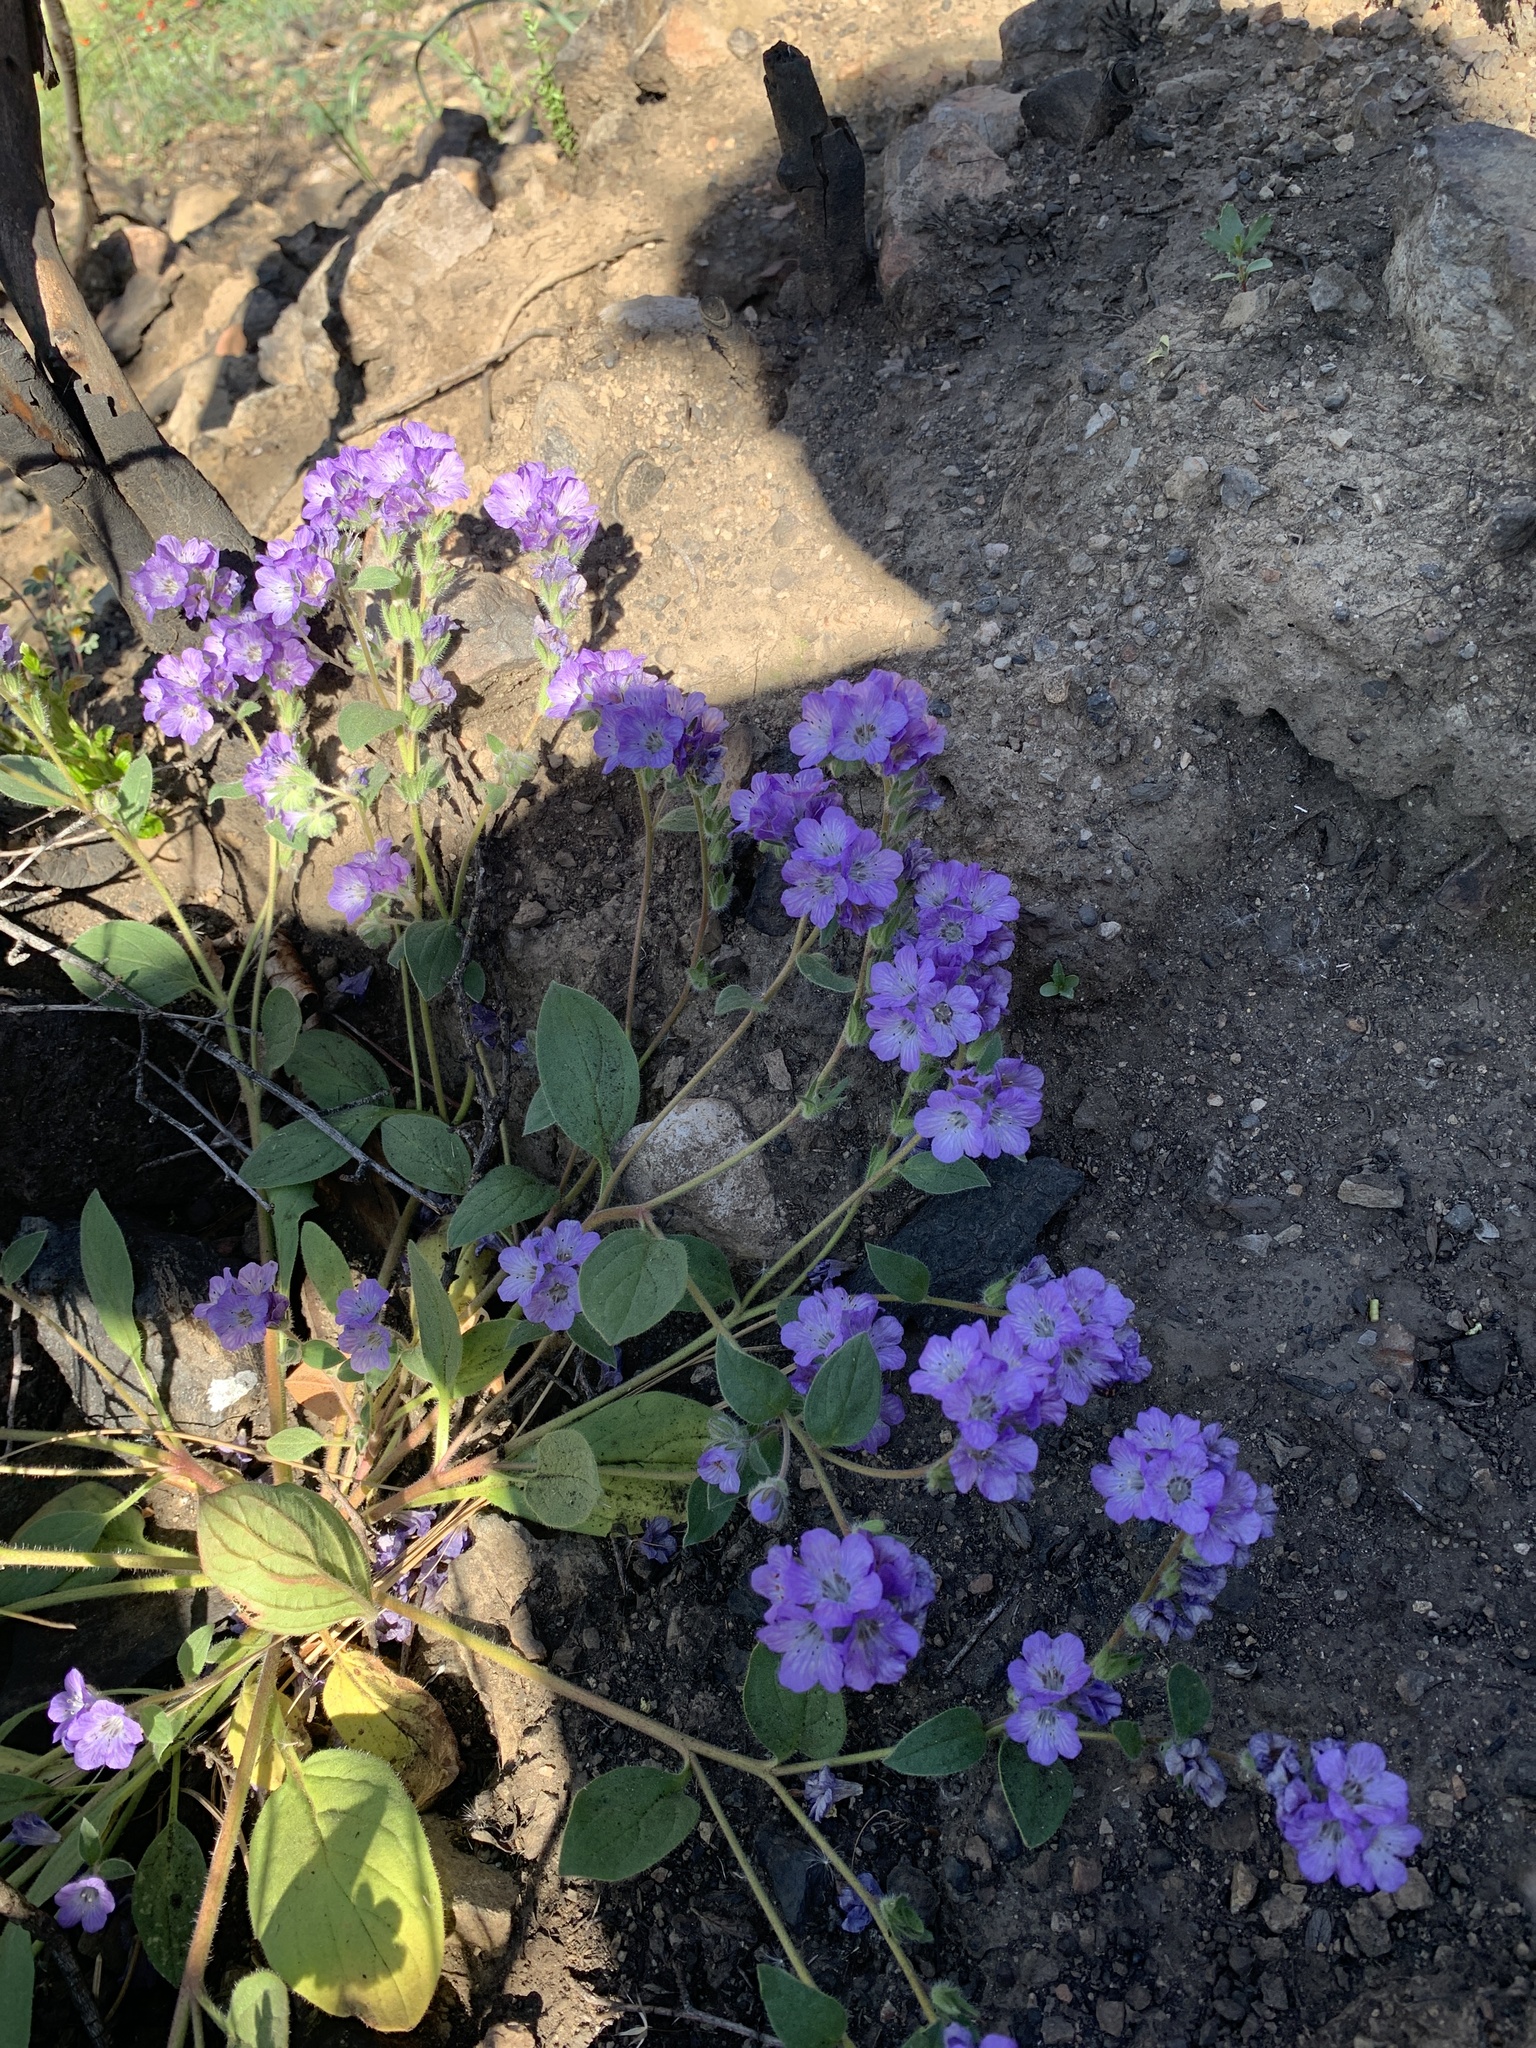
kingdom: Plantae
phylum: Tracheophyta
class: Magnoliopsida
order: Boraginales
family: Hydrophyllaceae
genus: Phacelia
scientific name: Phacelia divaricata
